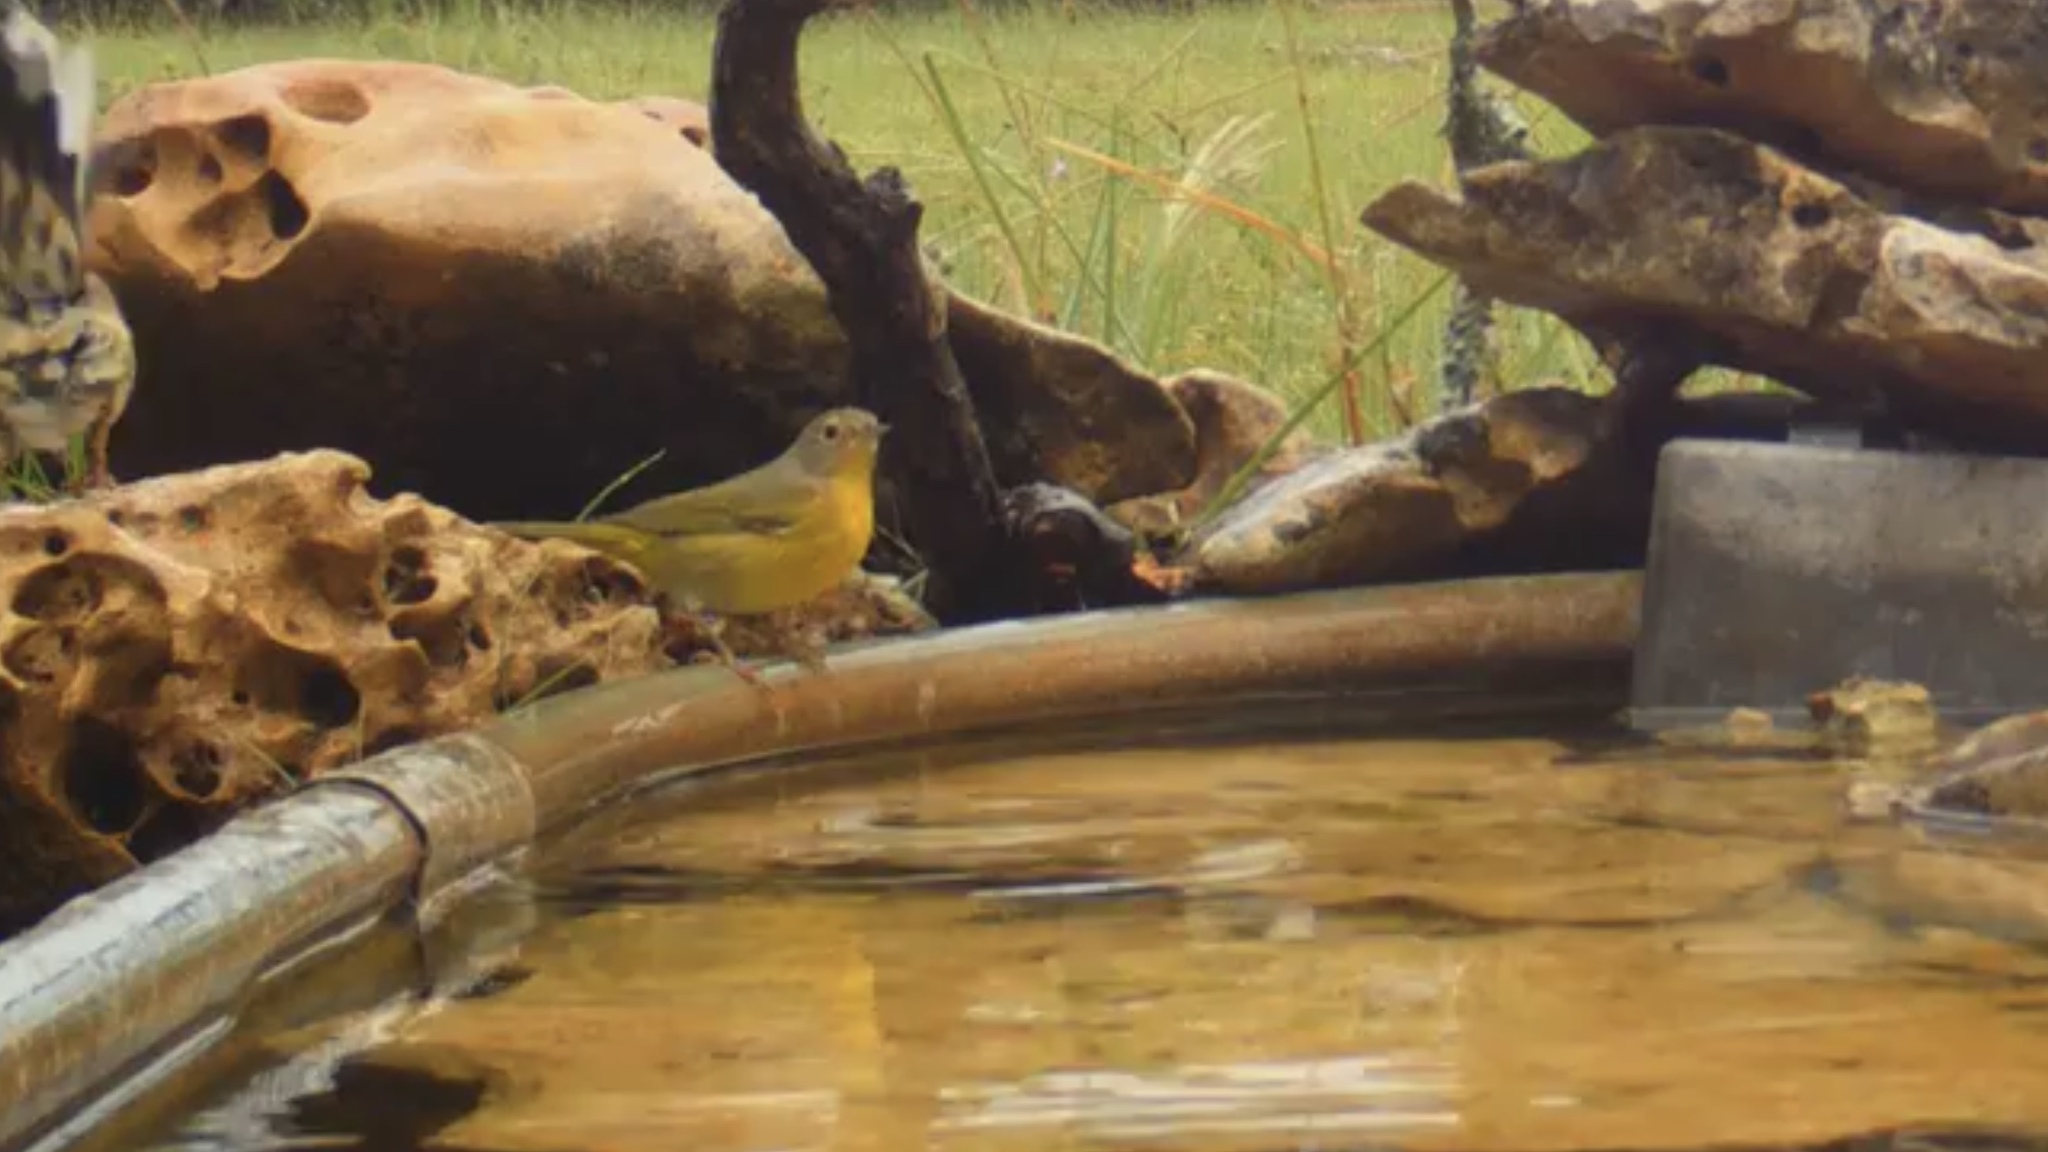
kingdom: Animalia
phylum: Chordata
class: Aves
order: Passeriformes
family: Parulidae
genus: Leiothlypis
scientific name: Leiothlypis ruficapilla
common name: Nashville warbler
